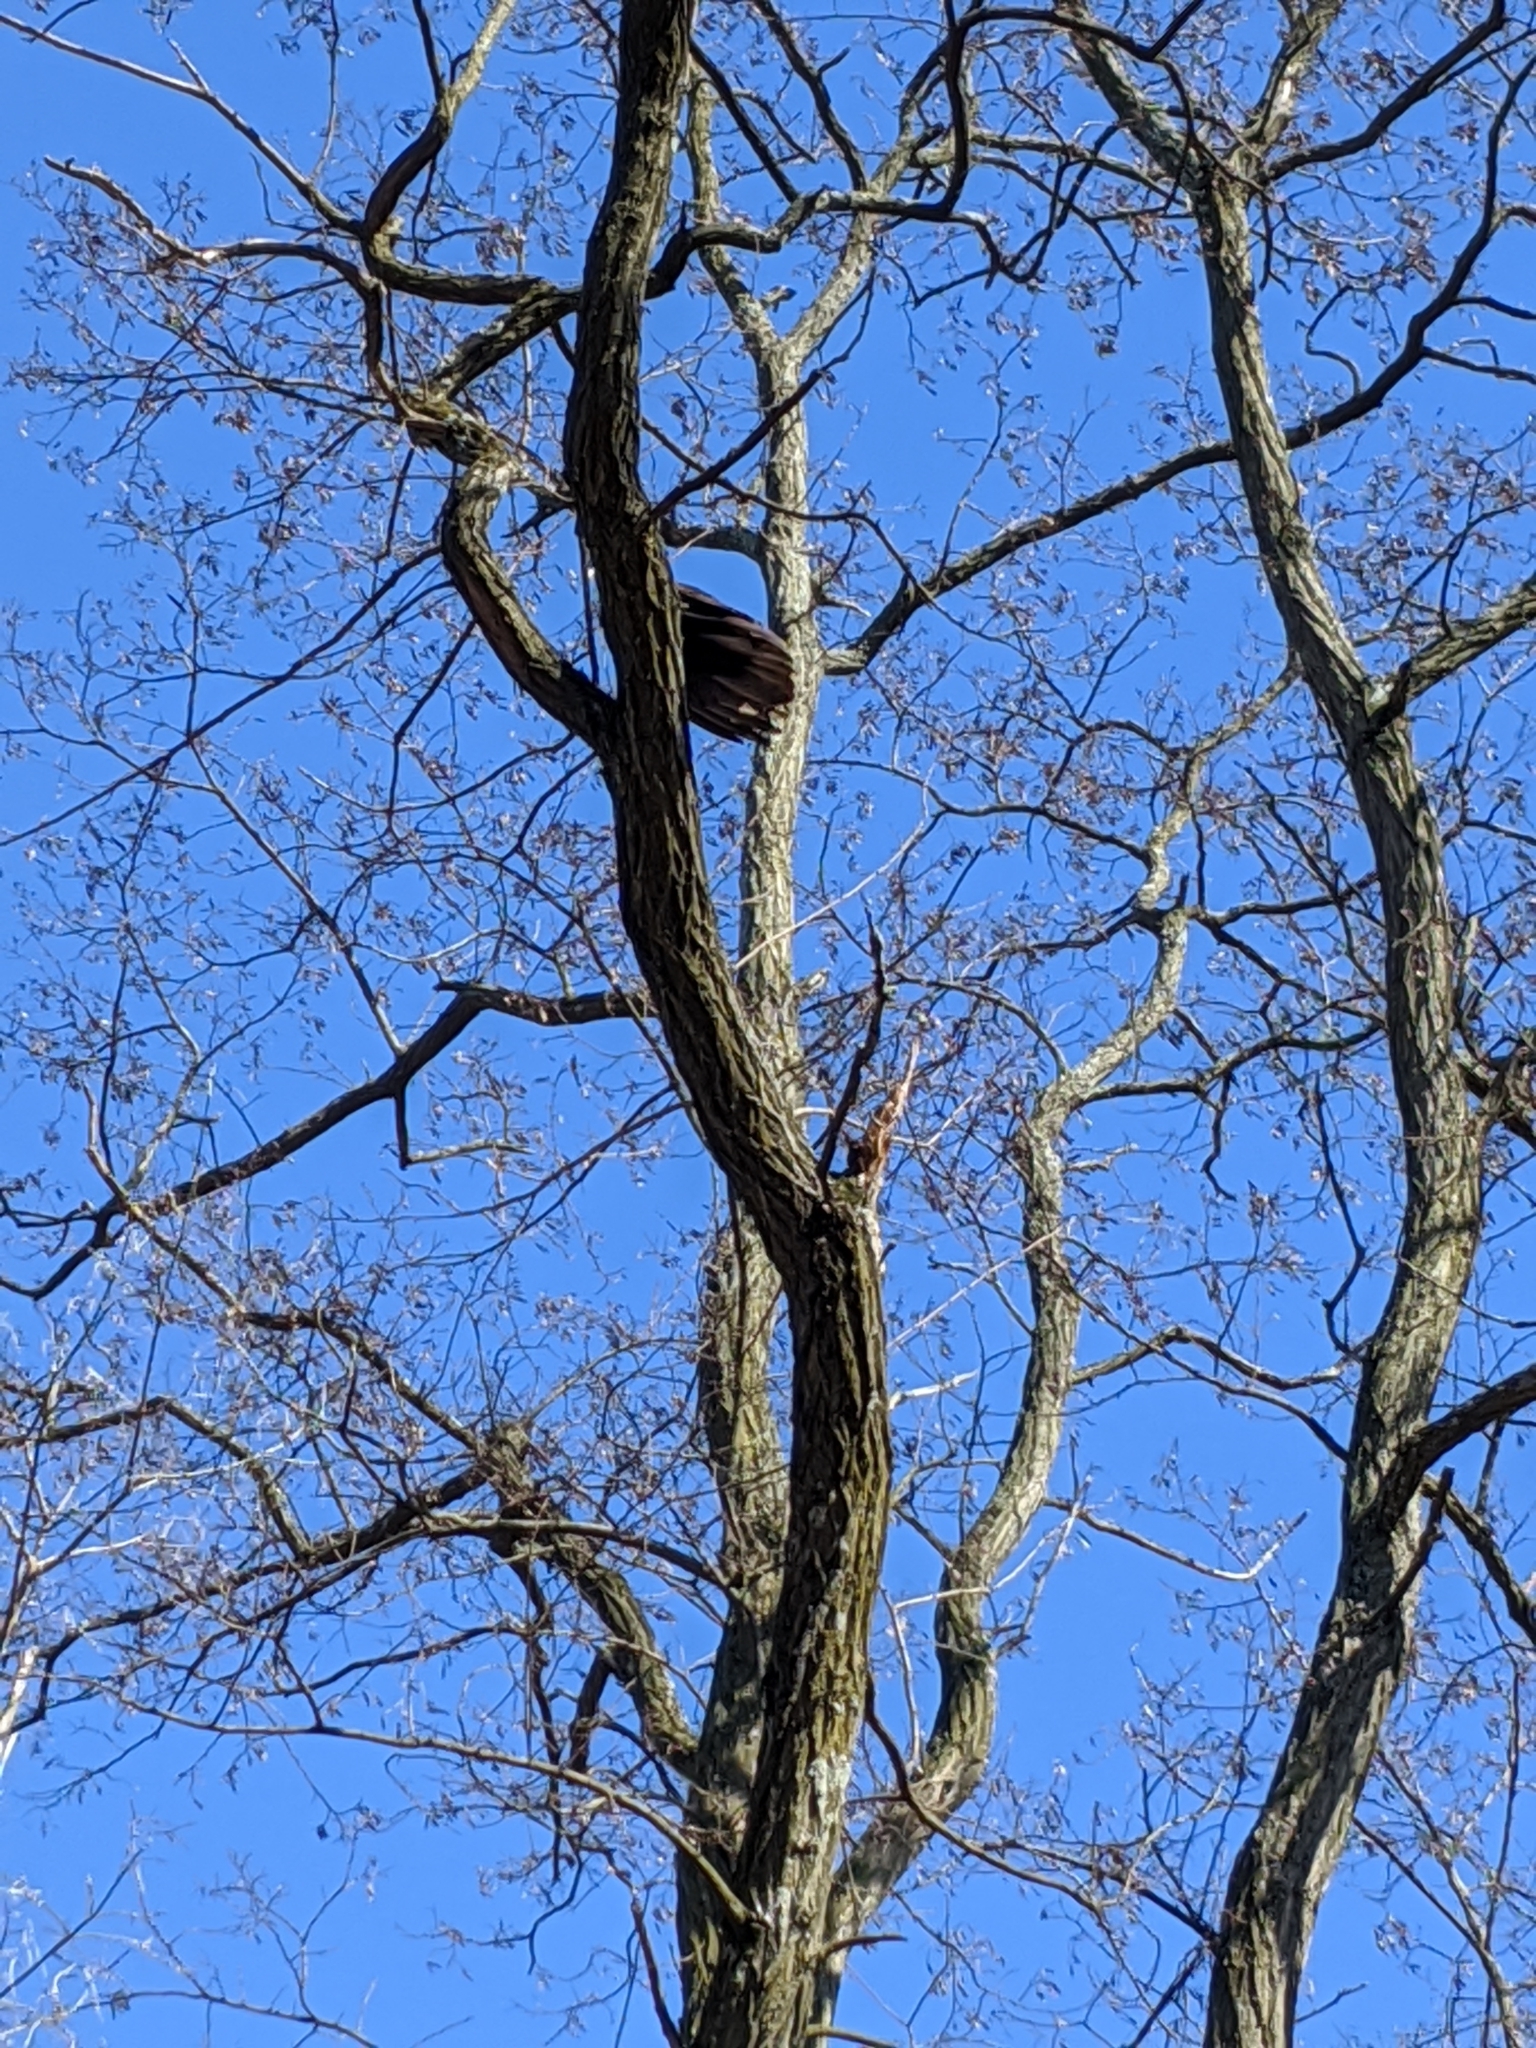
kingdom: Animalia
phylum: Chordata
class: Aves
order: Accipitriformes
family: Cathartidae
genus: Cathartes
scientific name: Cathartes aura
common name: Turkey vulture
